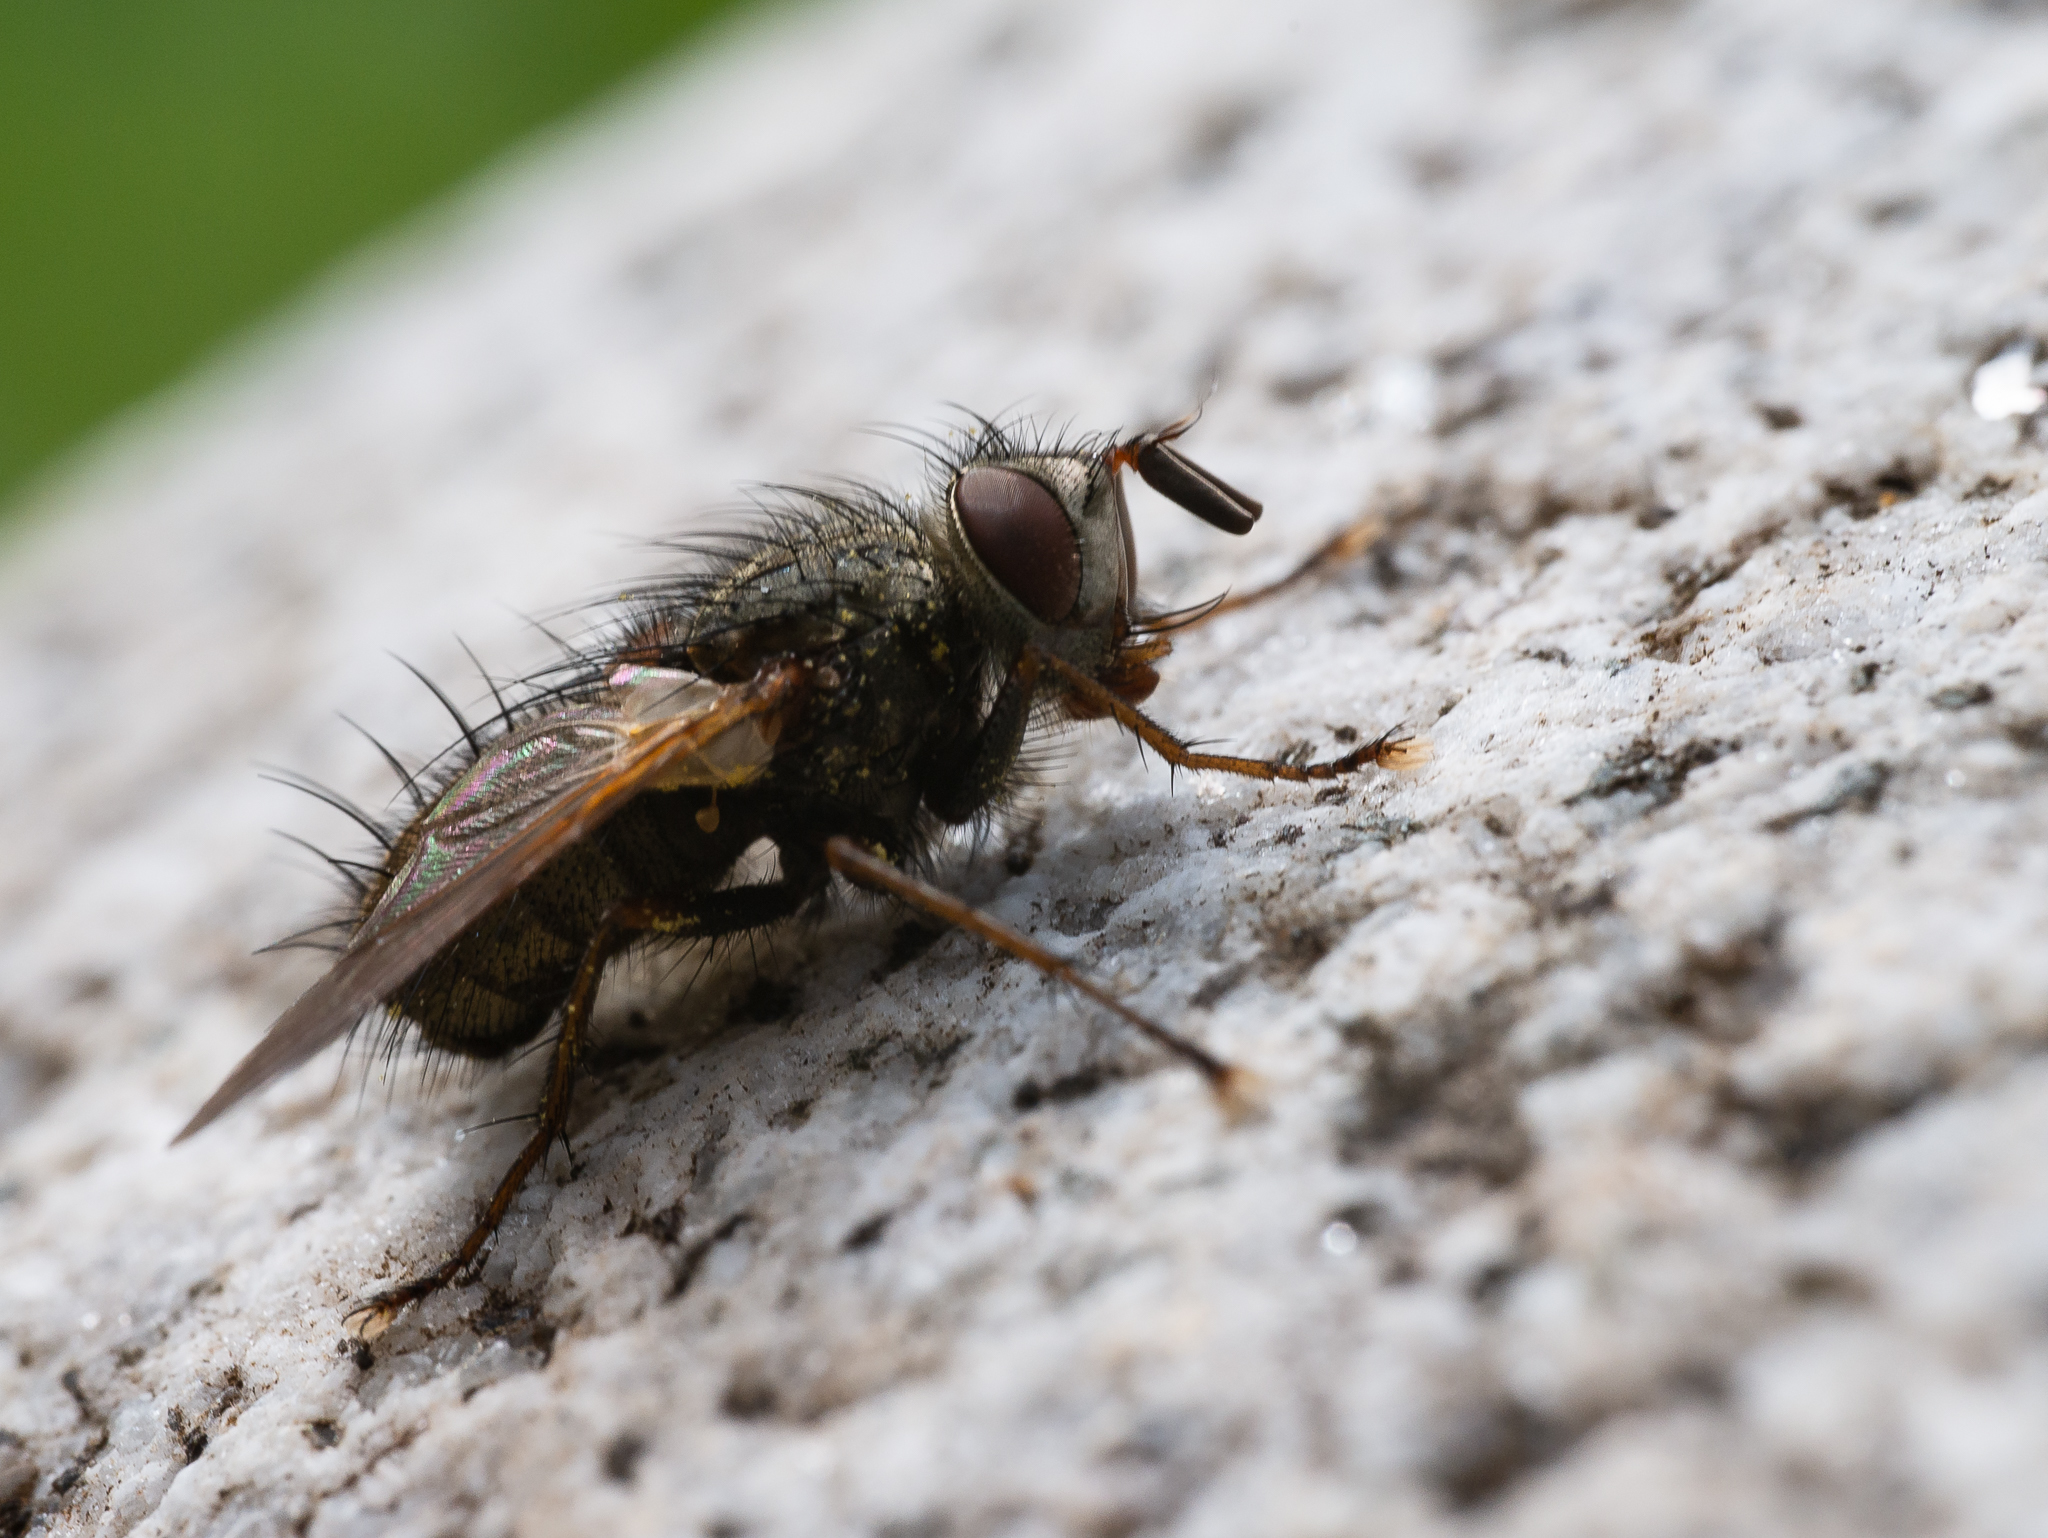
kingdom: Animalia
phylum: Arthropoda
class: Insecta
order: Diptera
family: Tachinidae
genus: Phryno
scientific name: Phryno vetula
